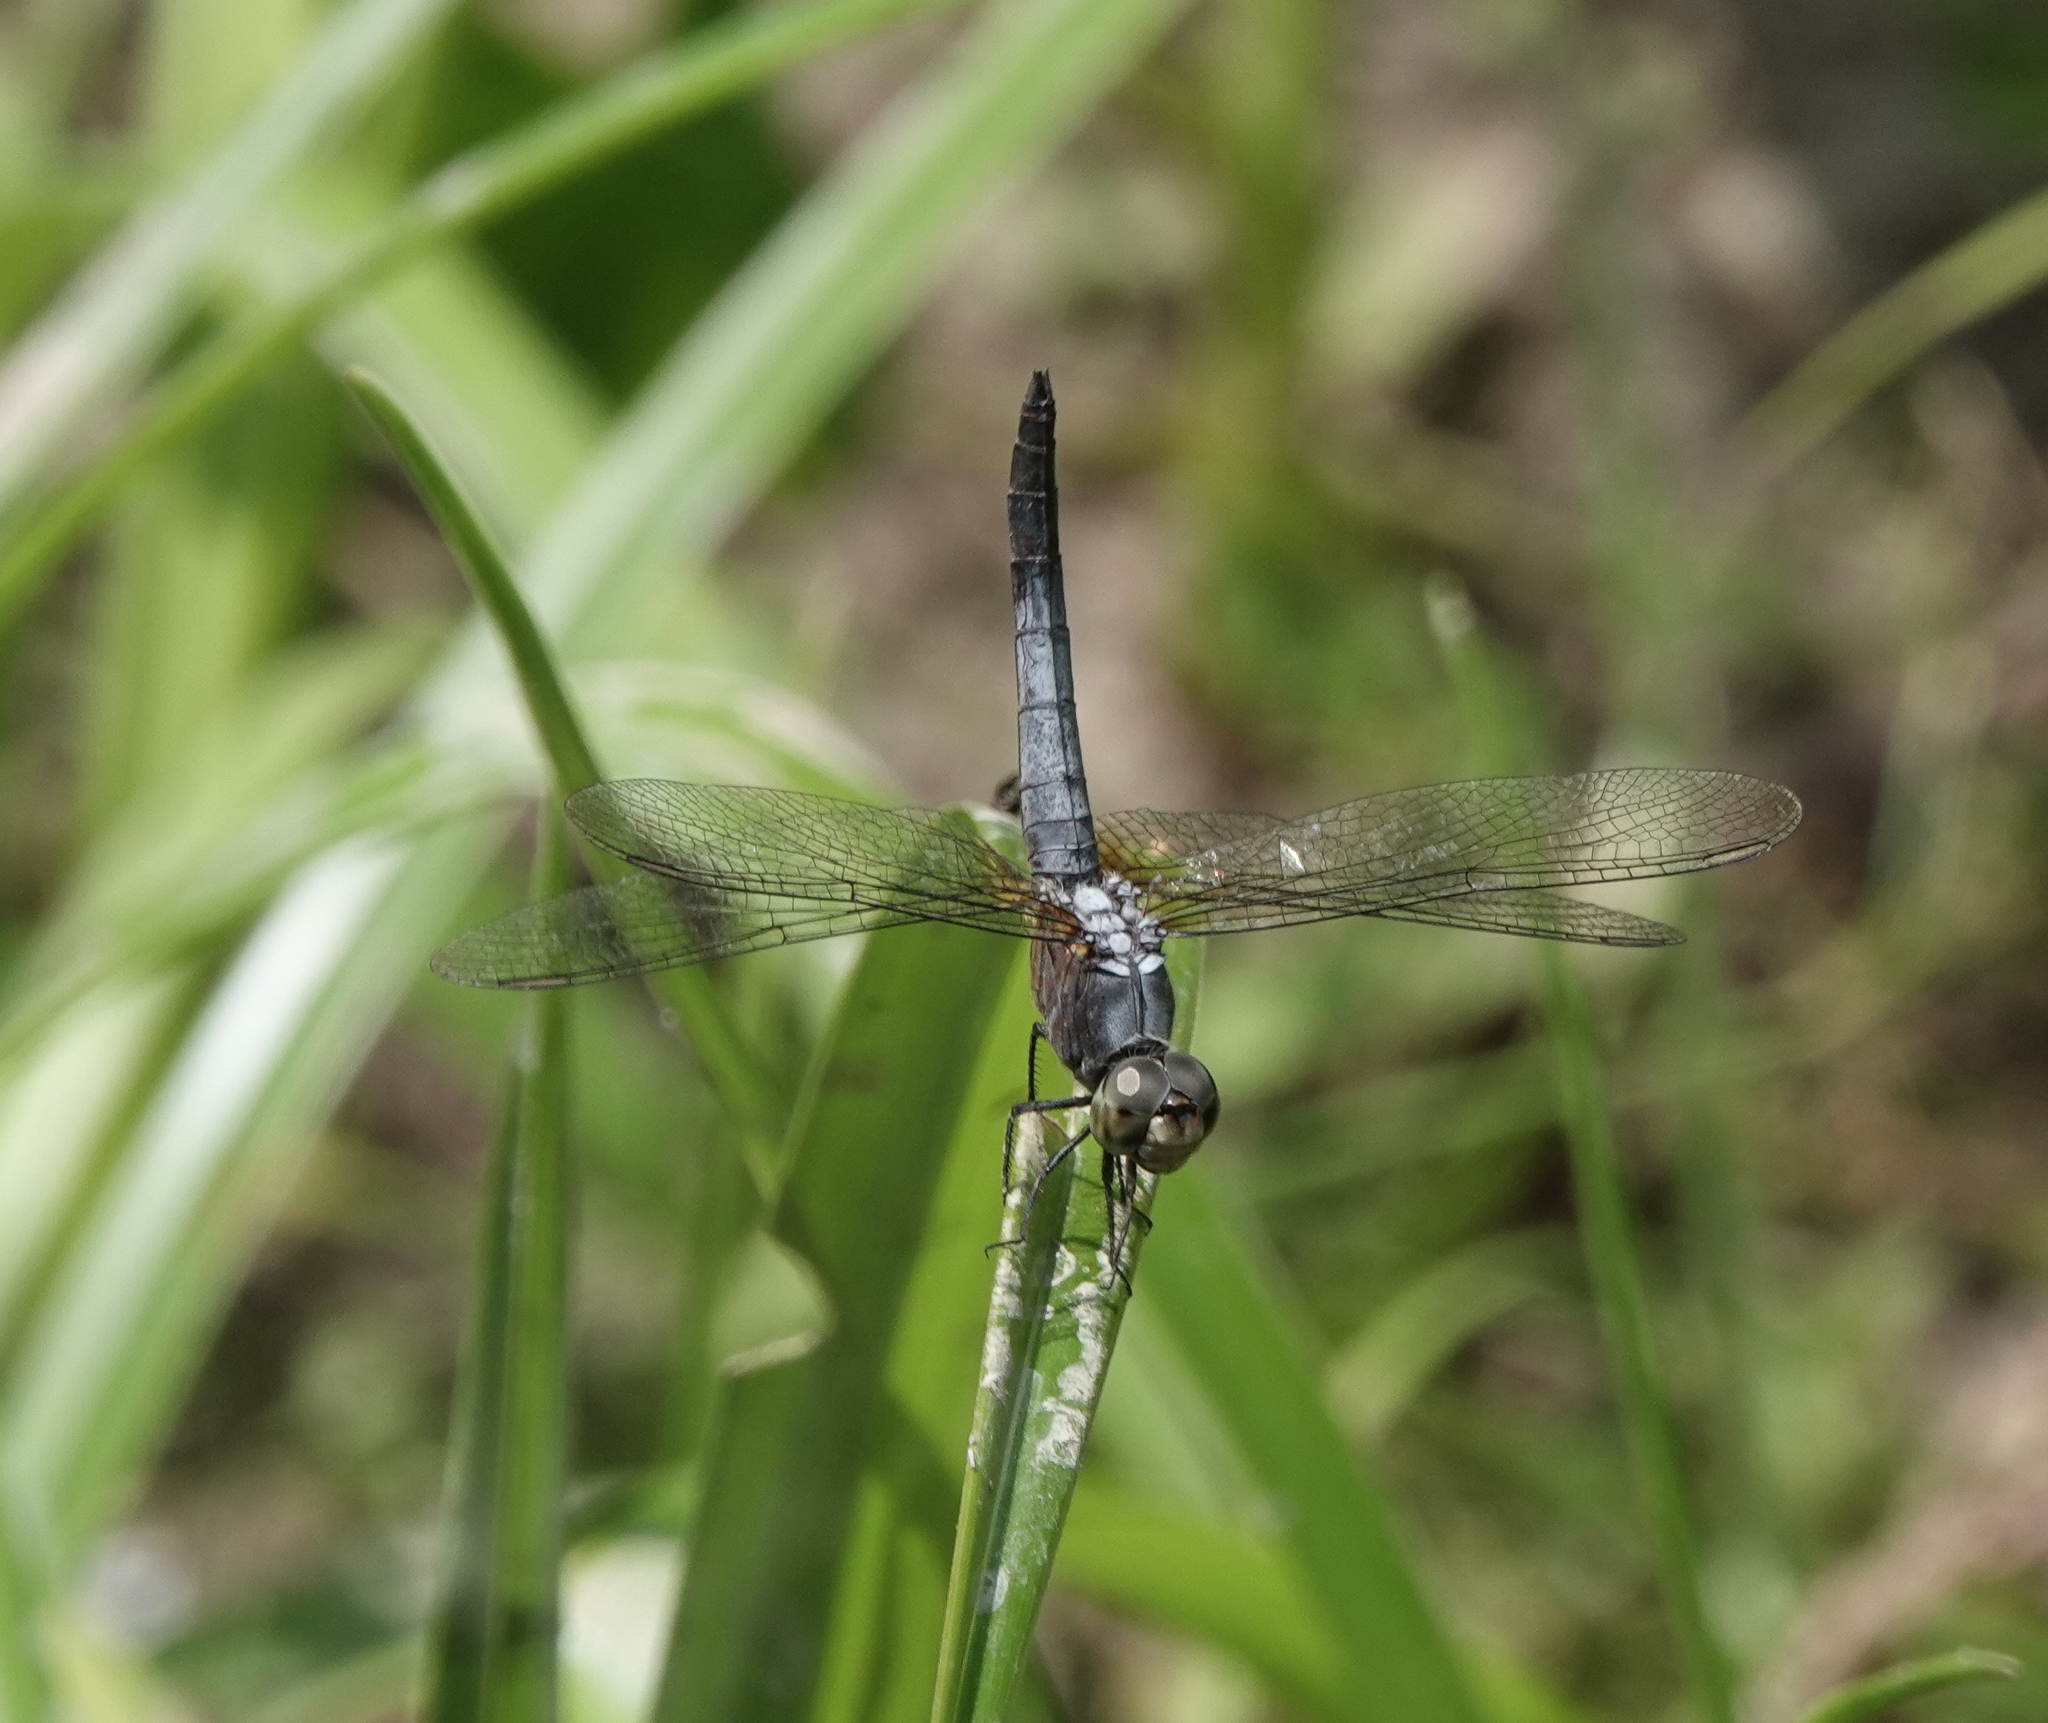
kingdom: Animalia
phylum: Arthropoda
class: Insecta
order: Odonata
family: Libellulidae
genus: Brachydiplax
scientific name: Brachydiplax chalybea
